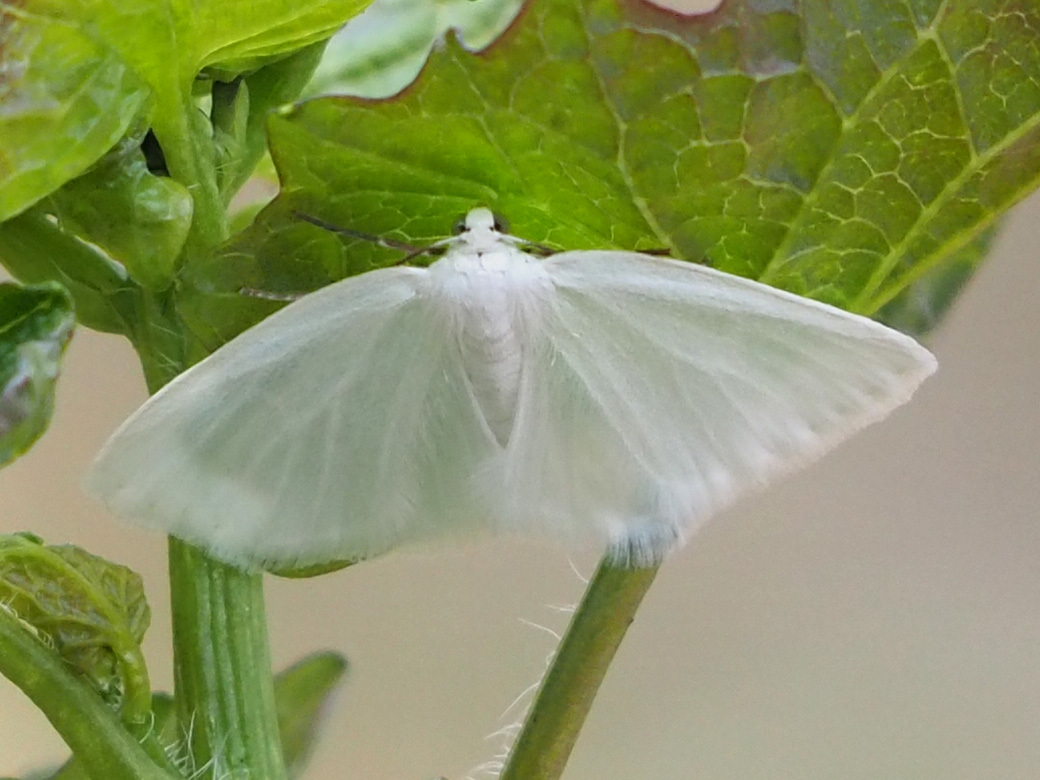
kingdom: Animalia
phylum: Arthropoda
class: Insecta
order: Lepidoptera
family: Geometridae
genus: Lomographa
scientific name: Lomographa vestaliata
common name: White spring moth
